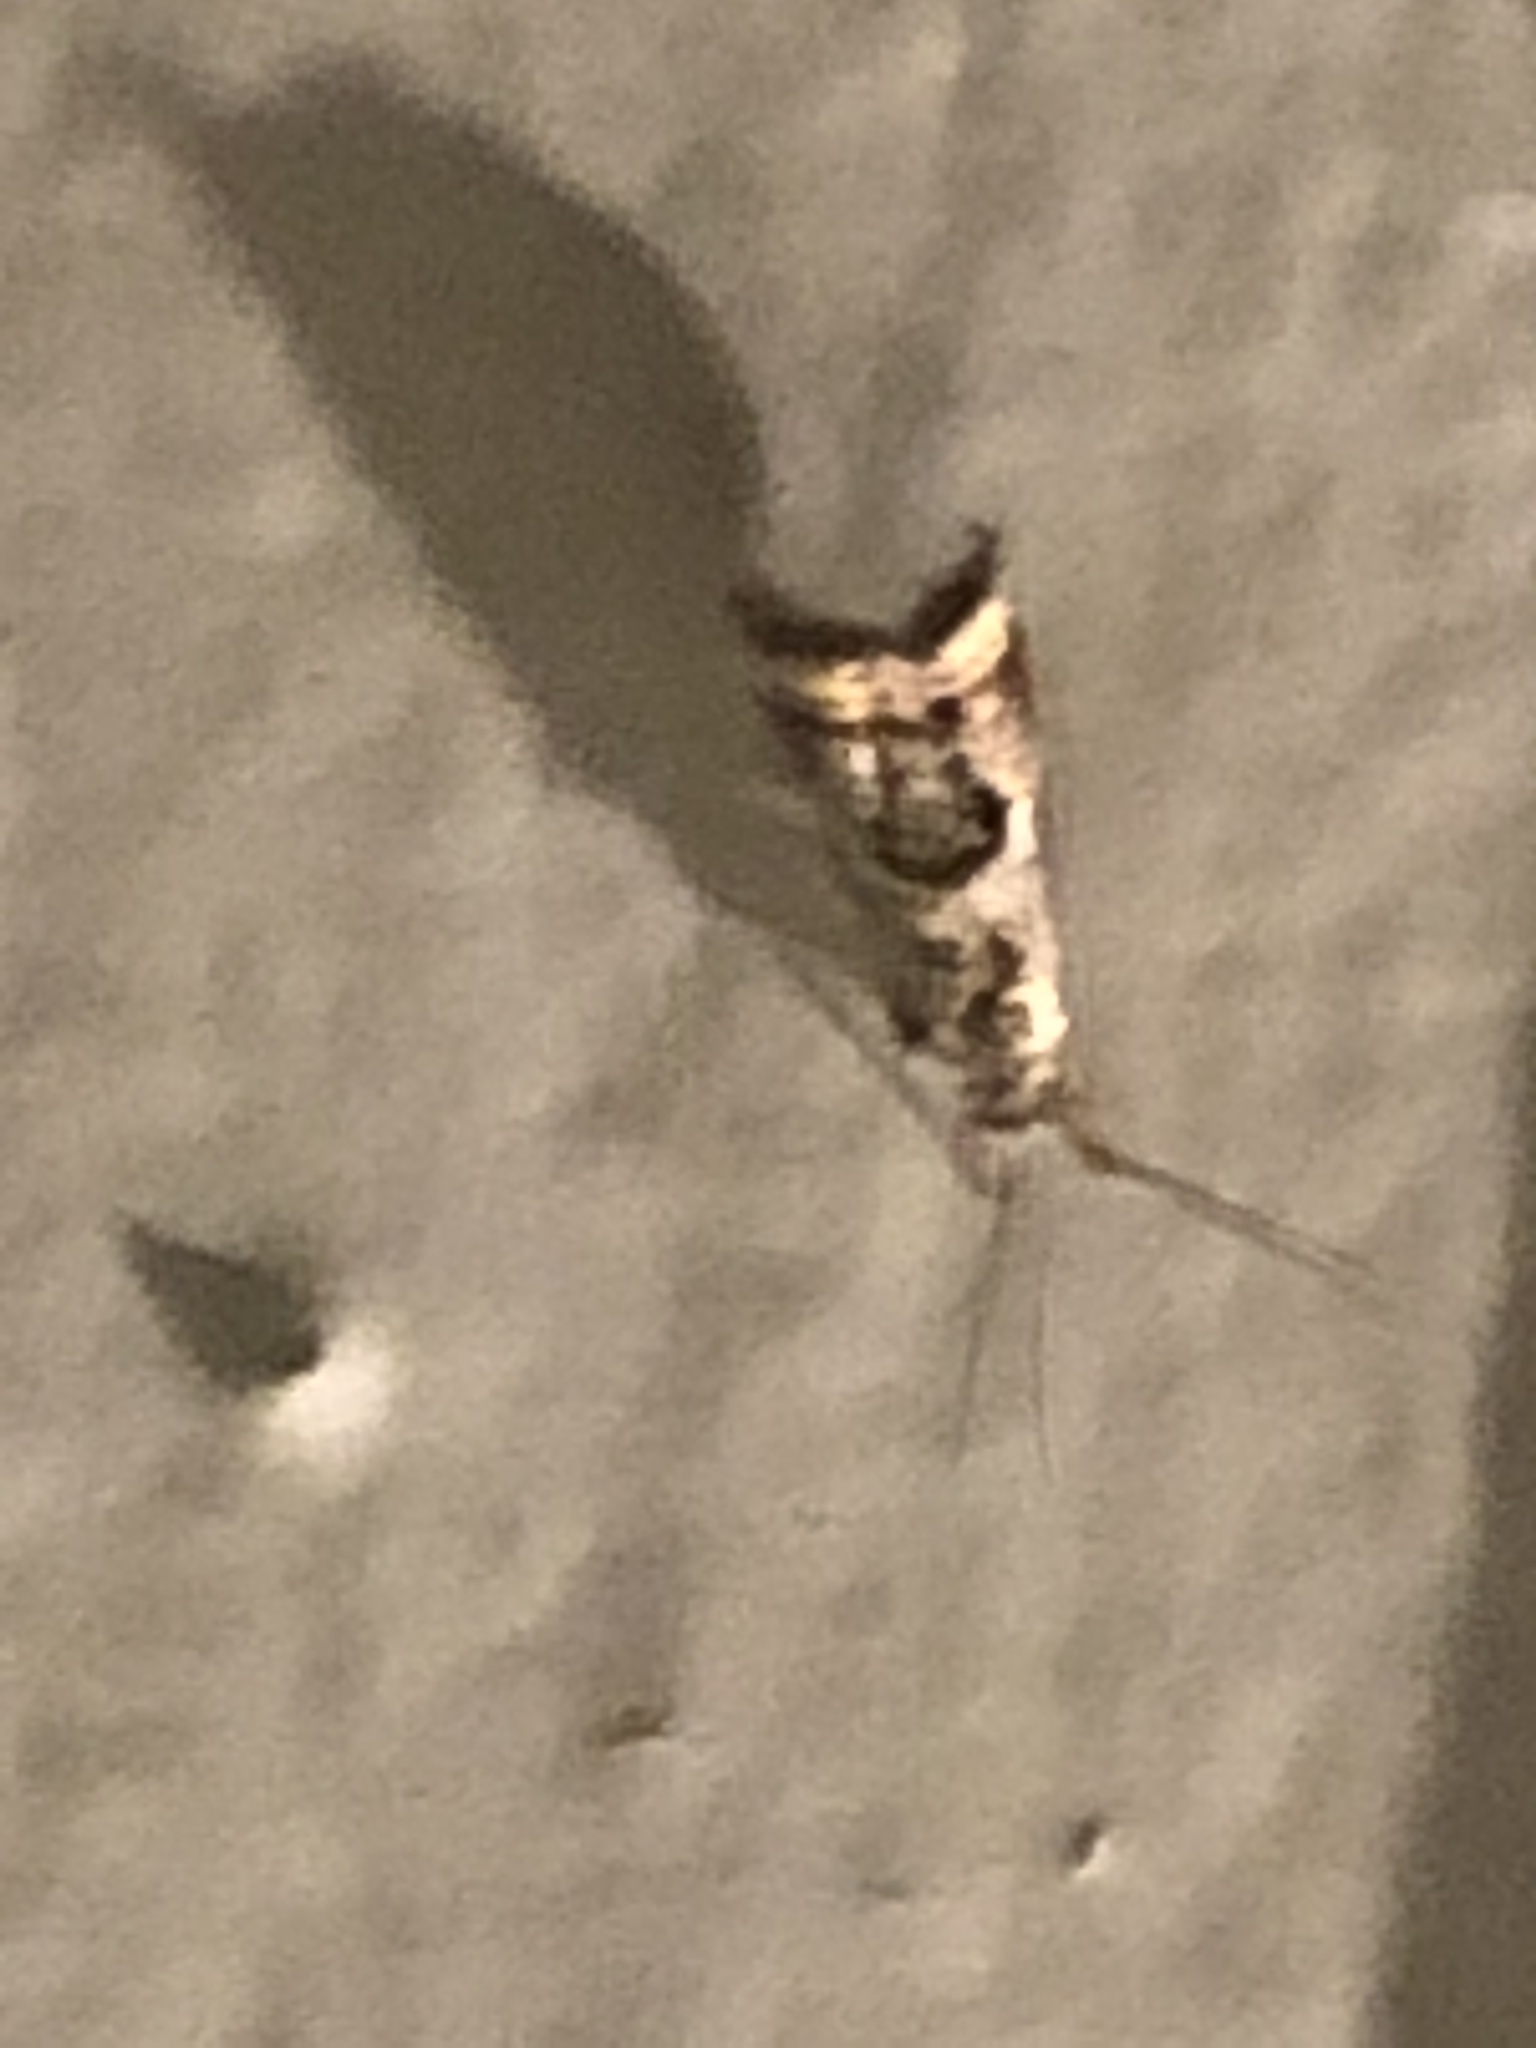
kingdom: Animalia
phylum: Arthropoda
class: Insecta
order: Lepidoptera
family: Crambidae
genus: Microcrambus
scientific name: Microcrambus elegans
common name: Elegant grass-veneer
